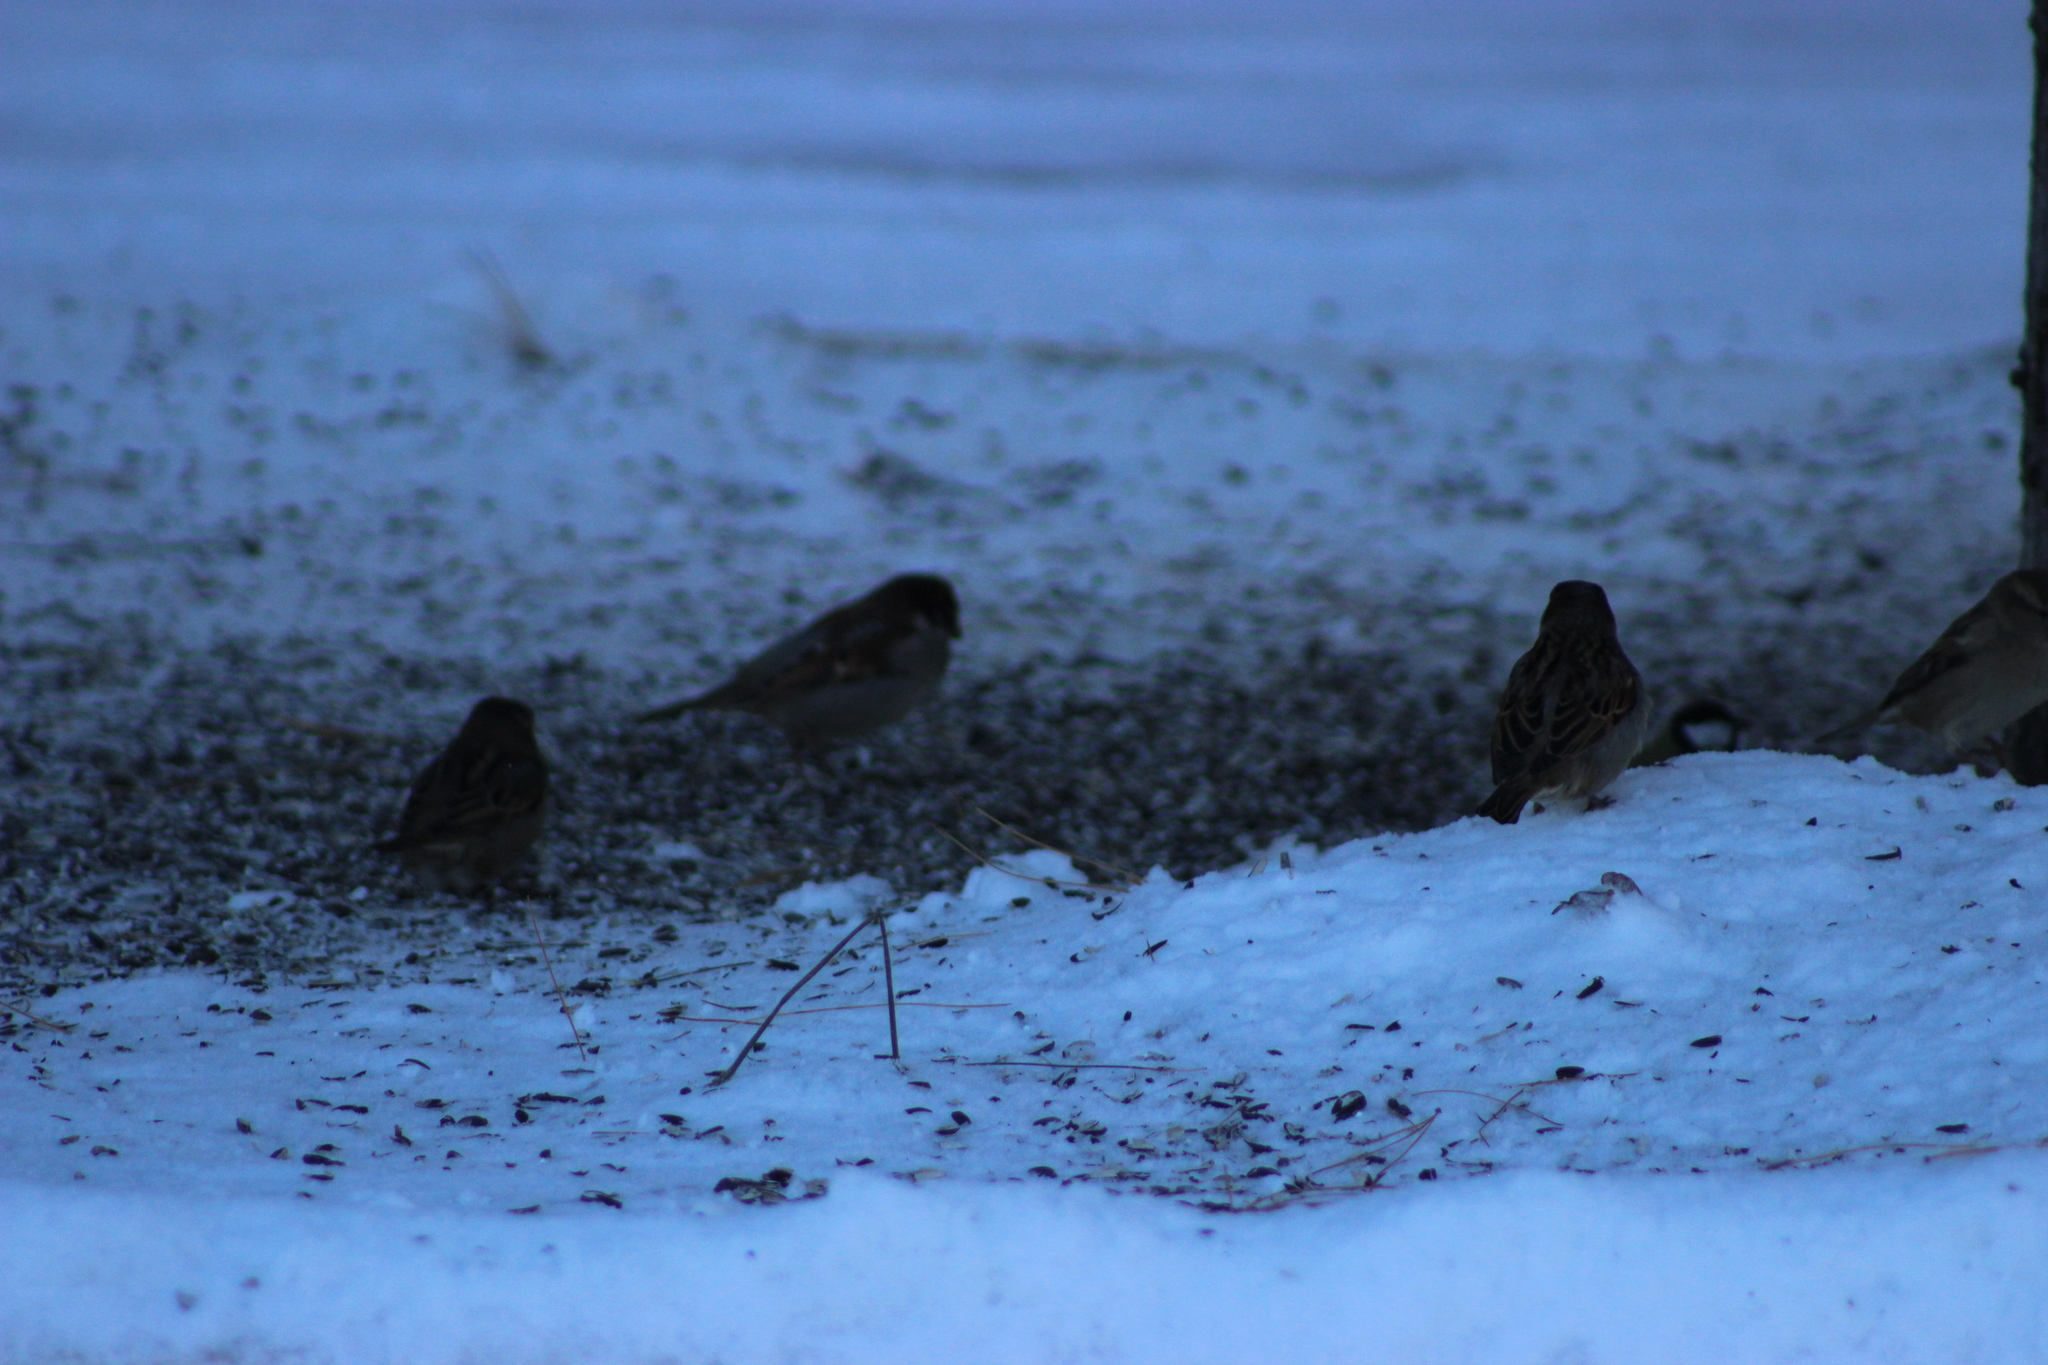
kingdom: Animalia
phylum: Chordata
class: Aves
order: Passeriformes
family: Passeridae
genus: Passer
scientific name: Passer domesticus
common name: House sparrow
